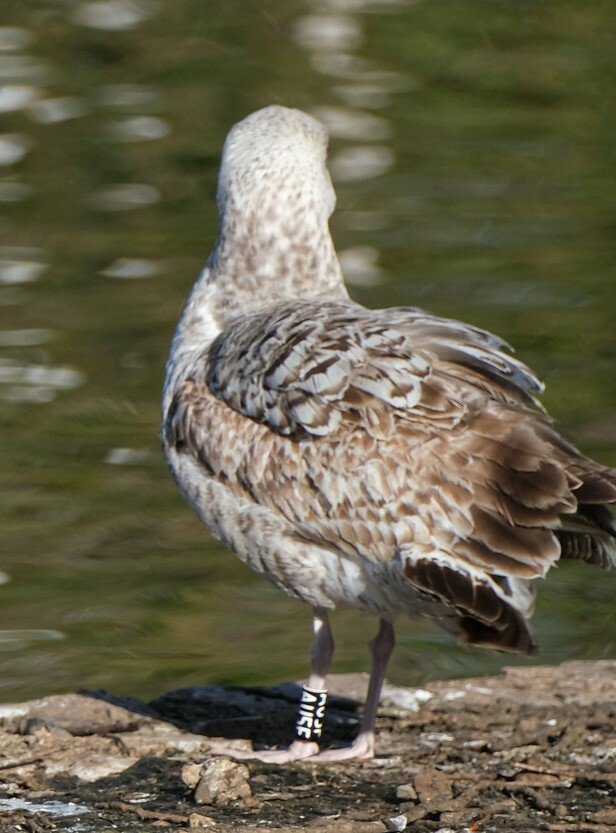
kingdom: Animalia
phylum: Chordata
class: Aves
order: Charadriiformes
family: Laridae
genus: Larus
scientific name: Larus michahellis
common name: Yellow-legged gull
